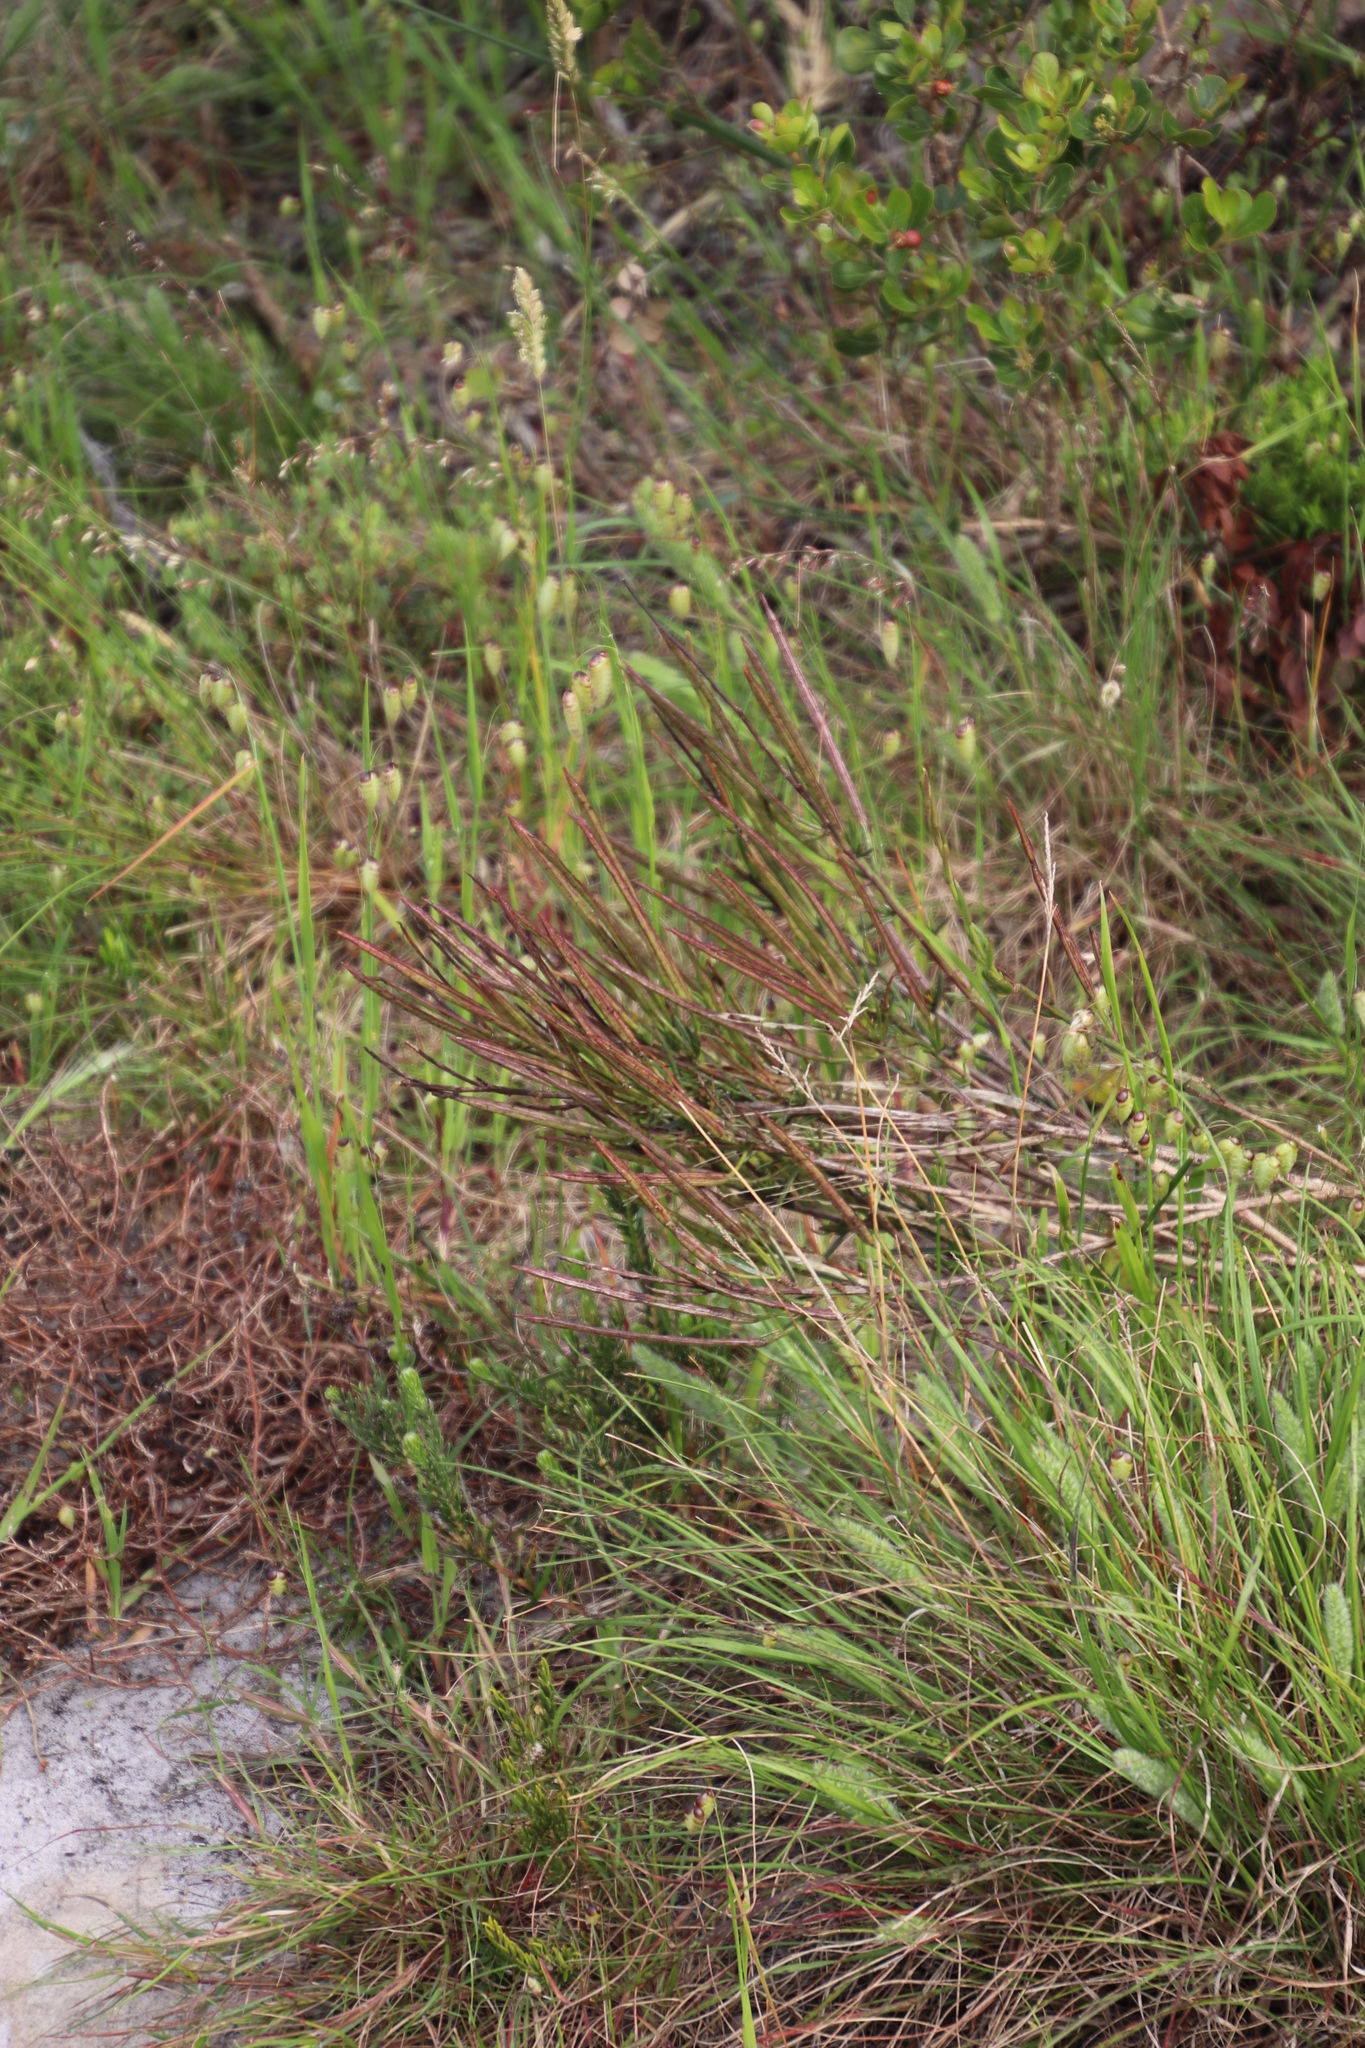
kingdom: Plantae
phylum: Tracheophyta
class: Liliopsida
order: Poales
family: Poaceae
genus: Briza
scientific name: Briza maxima
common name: Big quakinggrass
